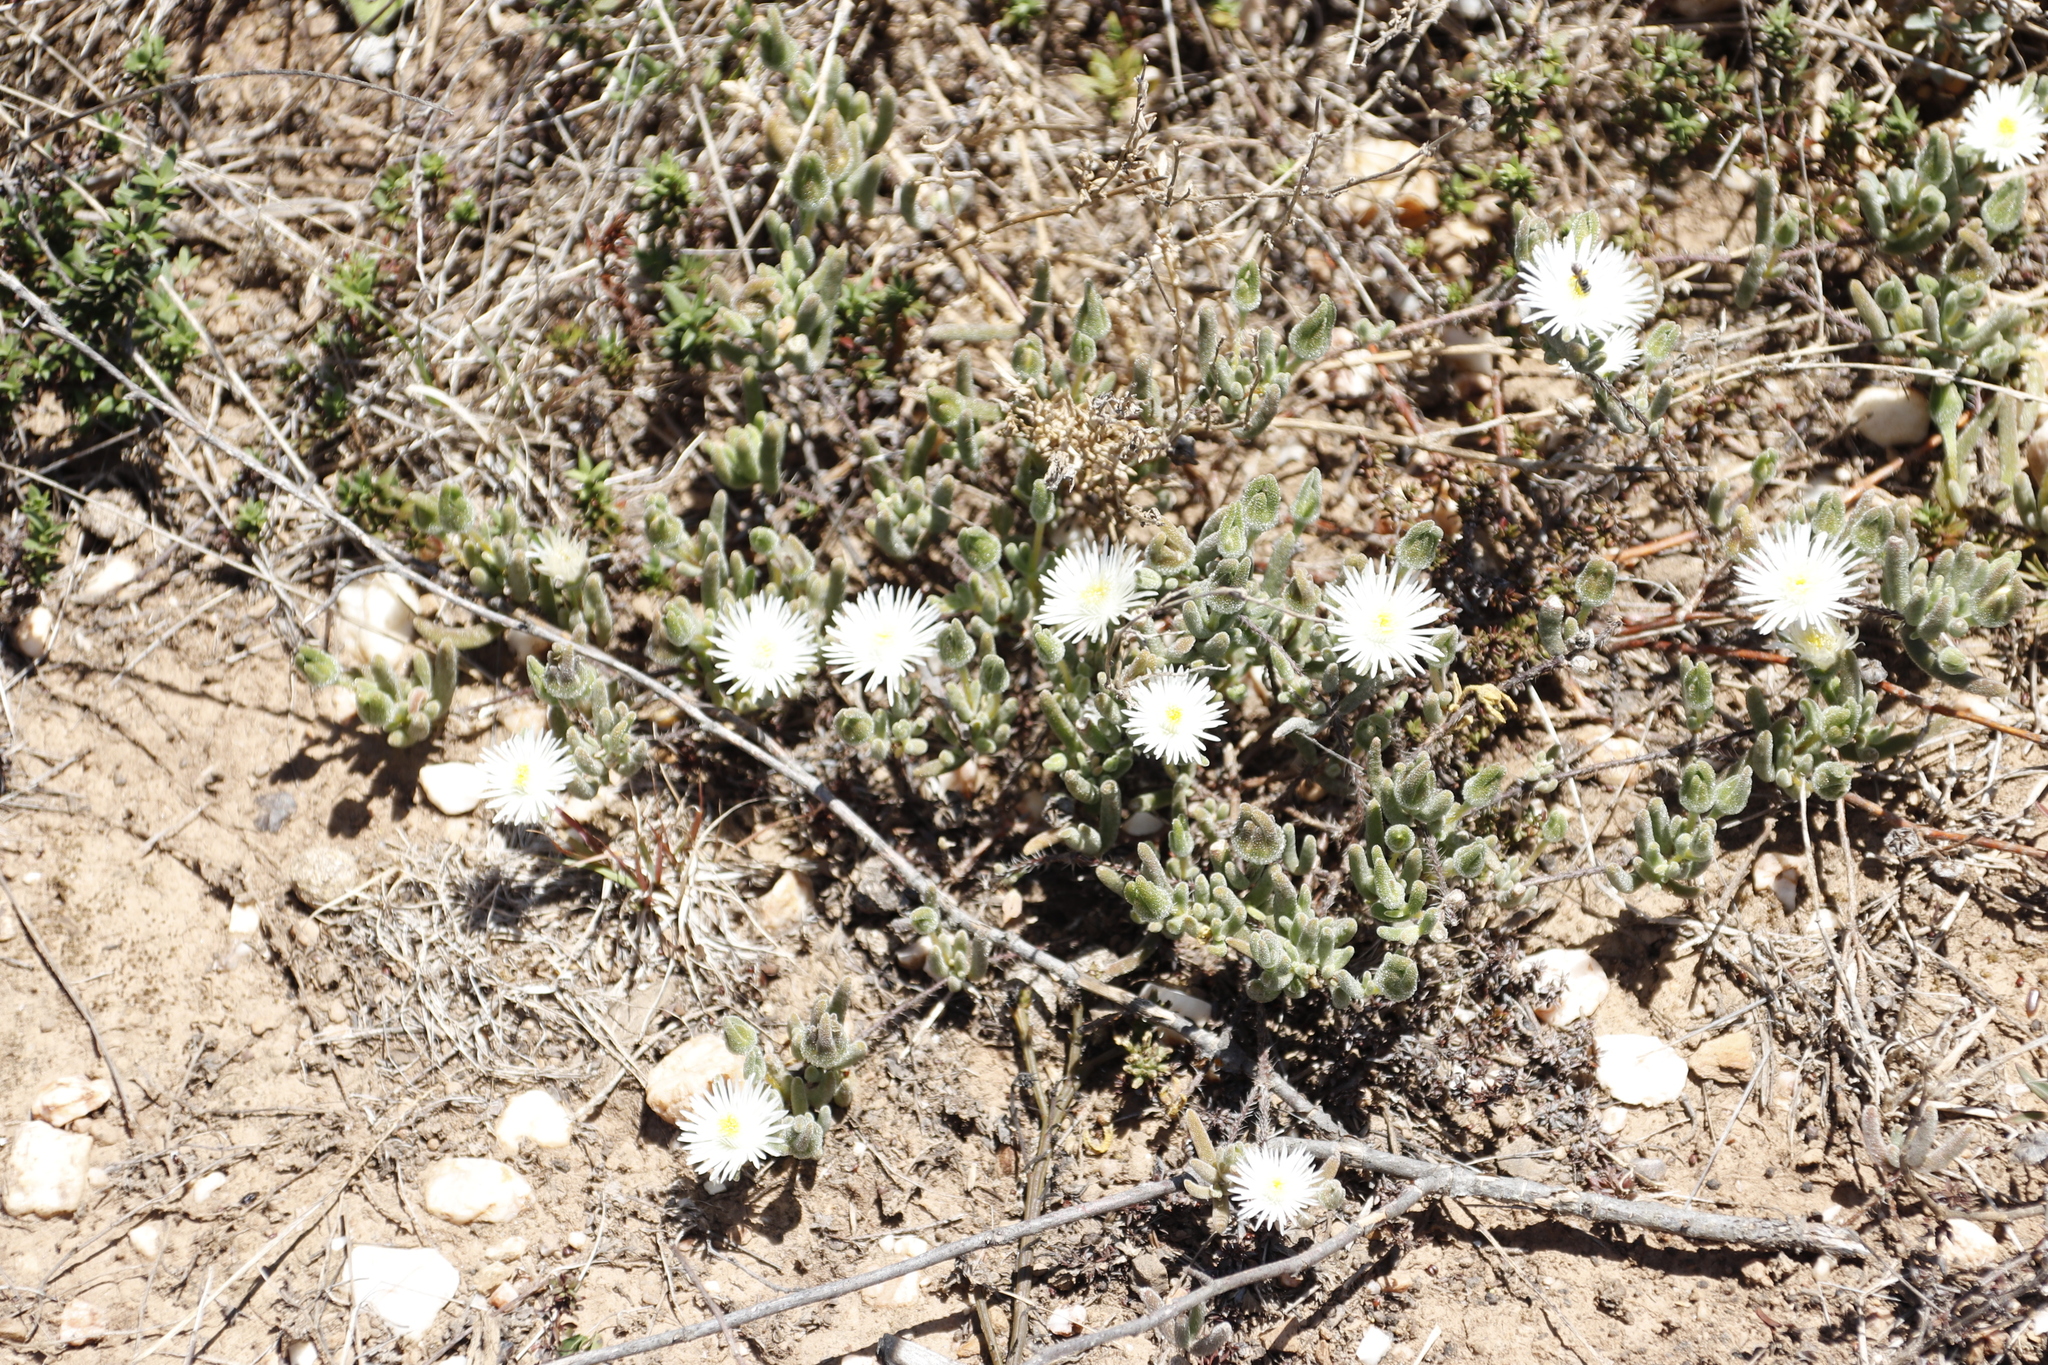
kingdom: Plantae
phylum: Tracheophyta
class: Magnoliopsida
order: Caryophyllales
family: Aizoaceae
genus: Drosanthemum
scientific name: Drosanthemum calycinum
